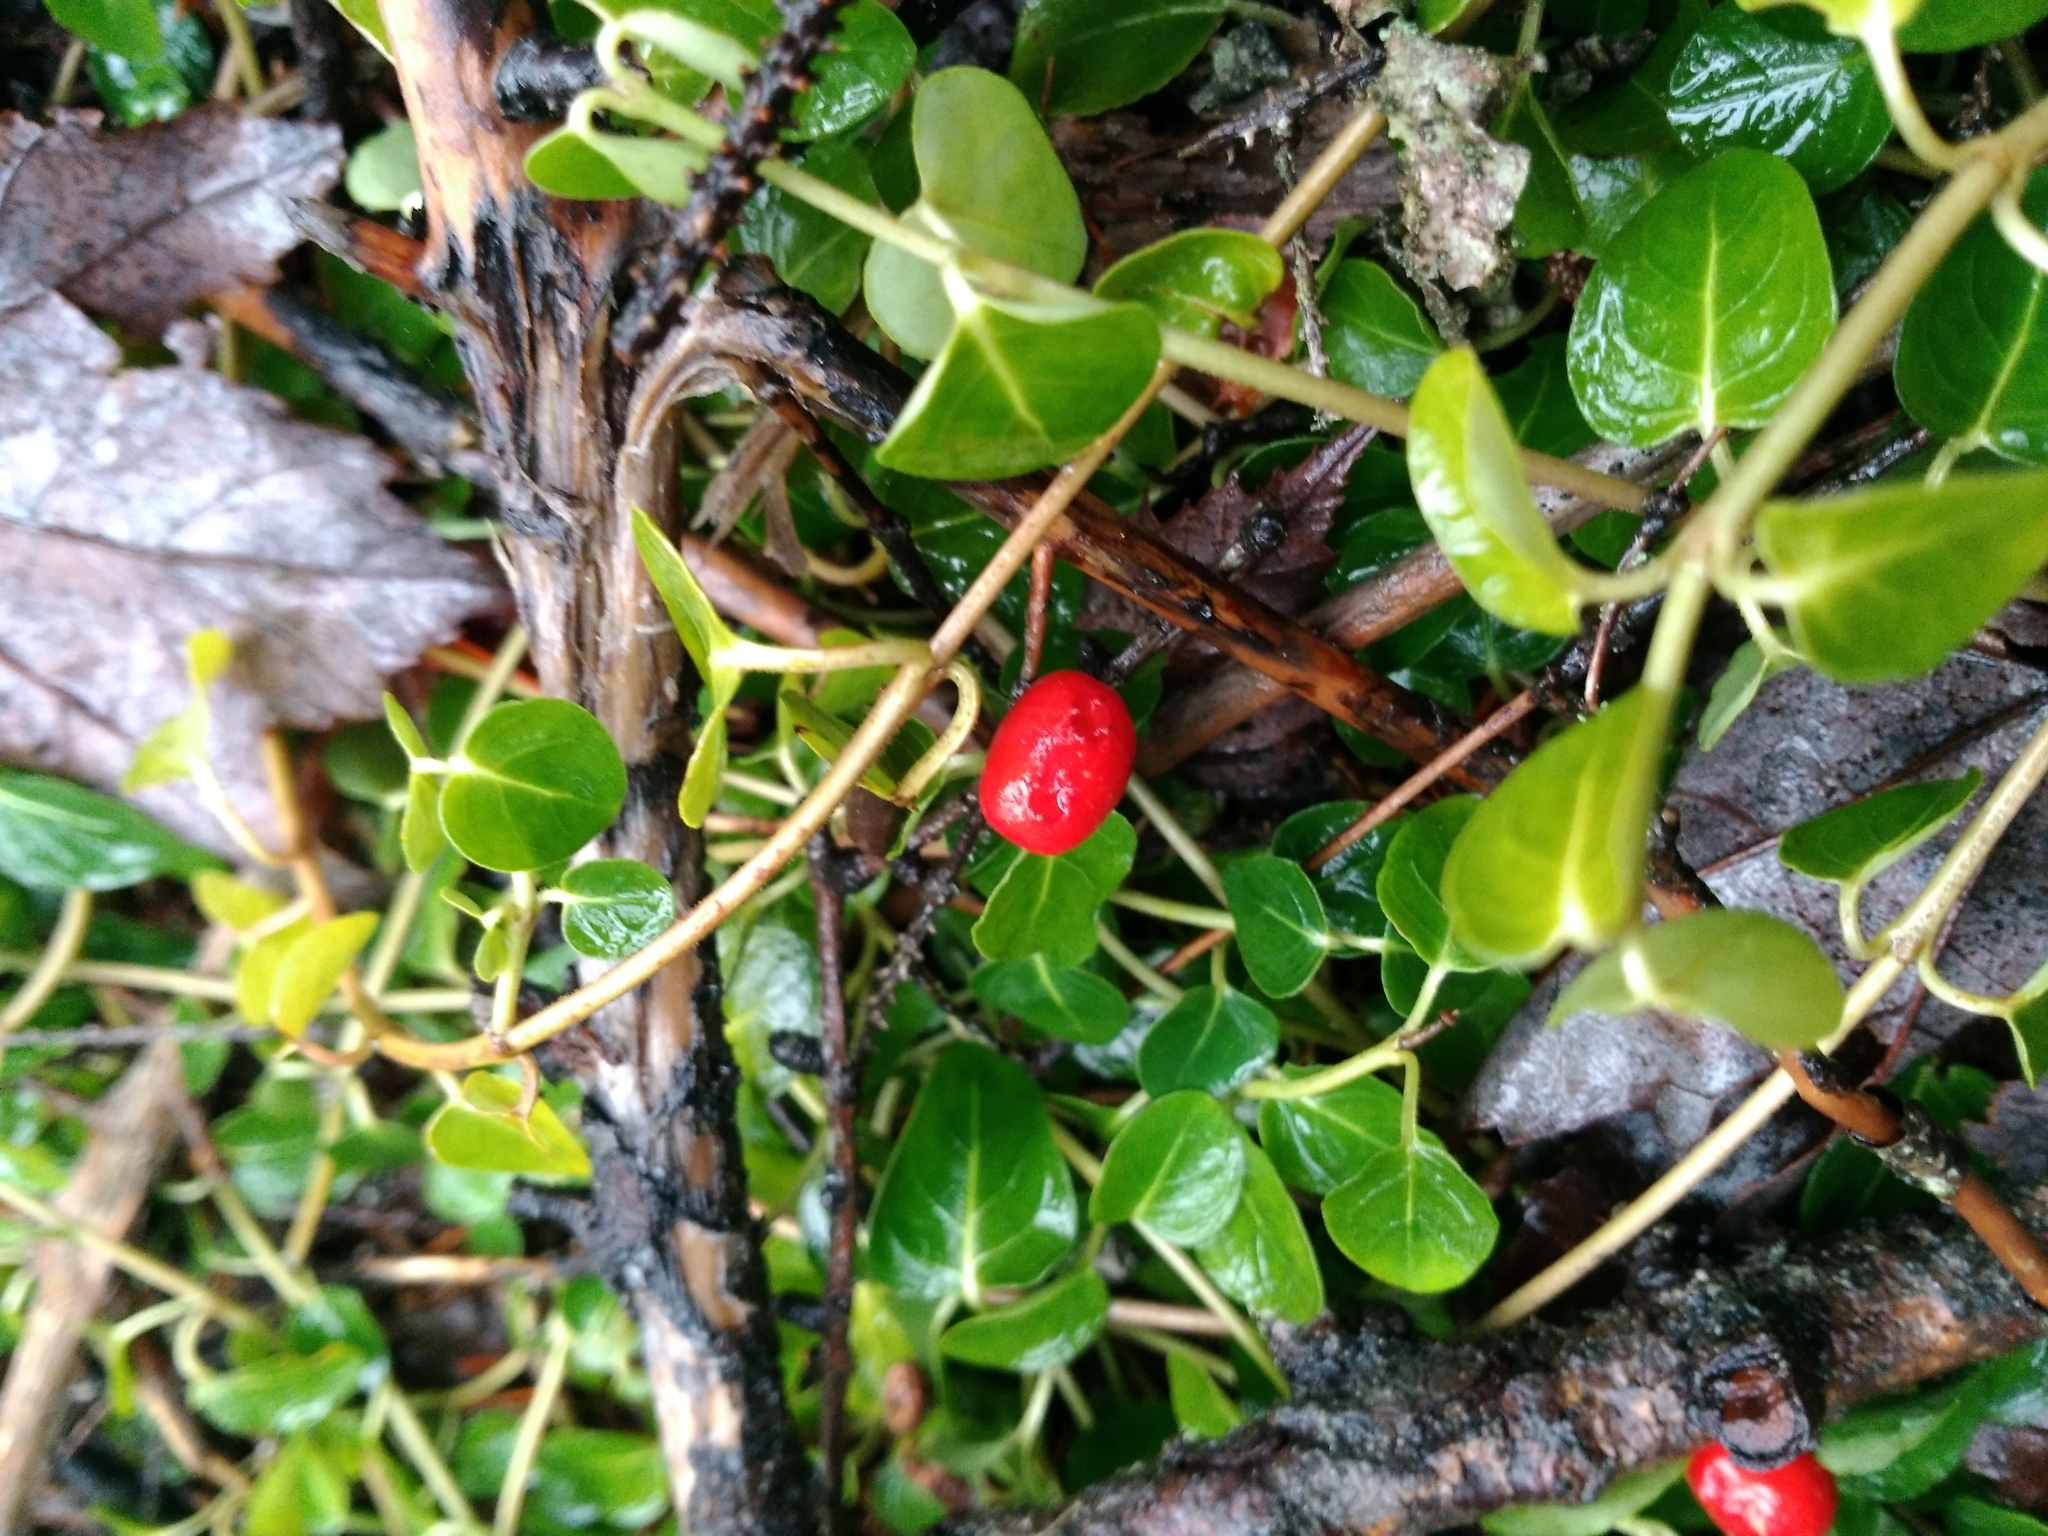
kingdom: Plantae
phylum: Tracheophyta
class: Magnoliopsida
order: Gentianales
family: Rubiaceae
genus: Mitchella
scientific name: Mitchella repens
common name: Partridge-berry
